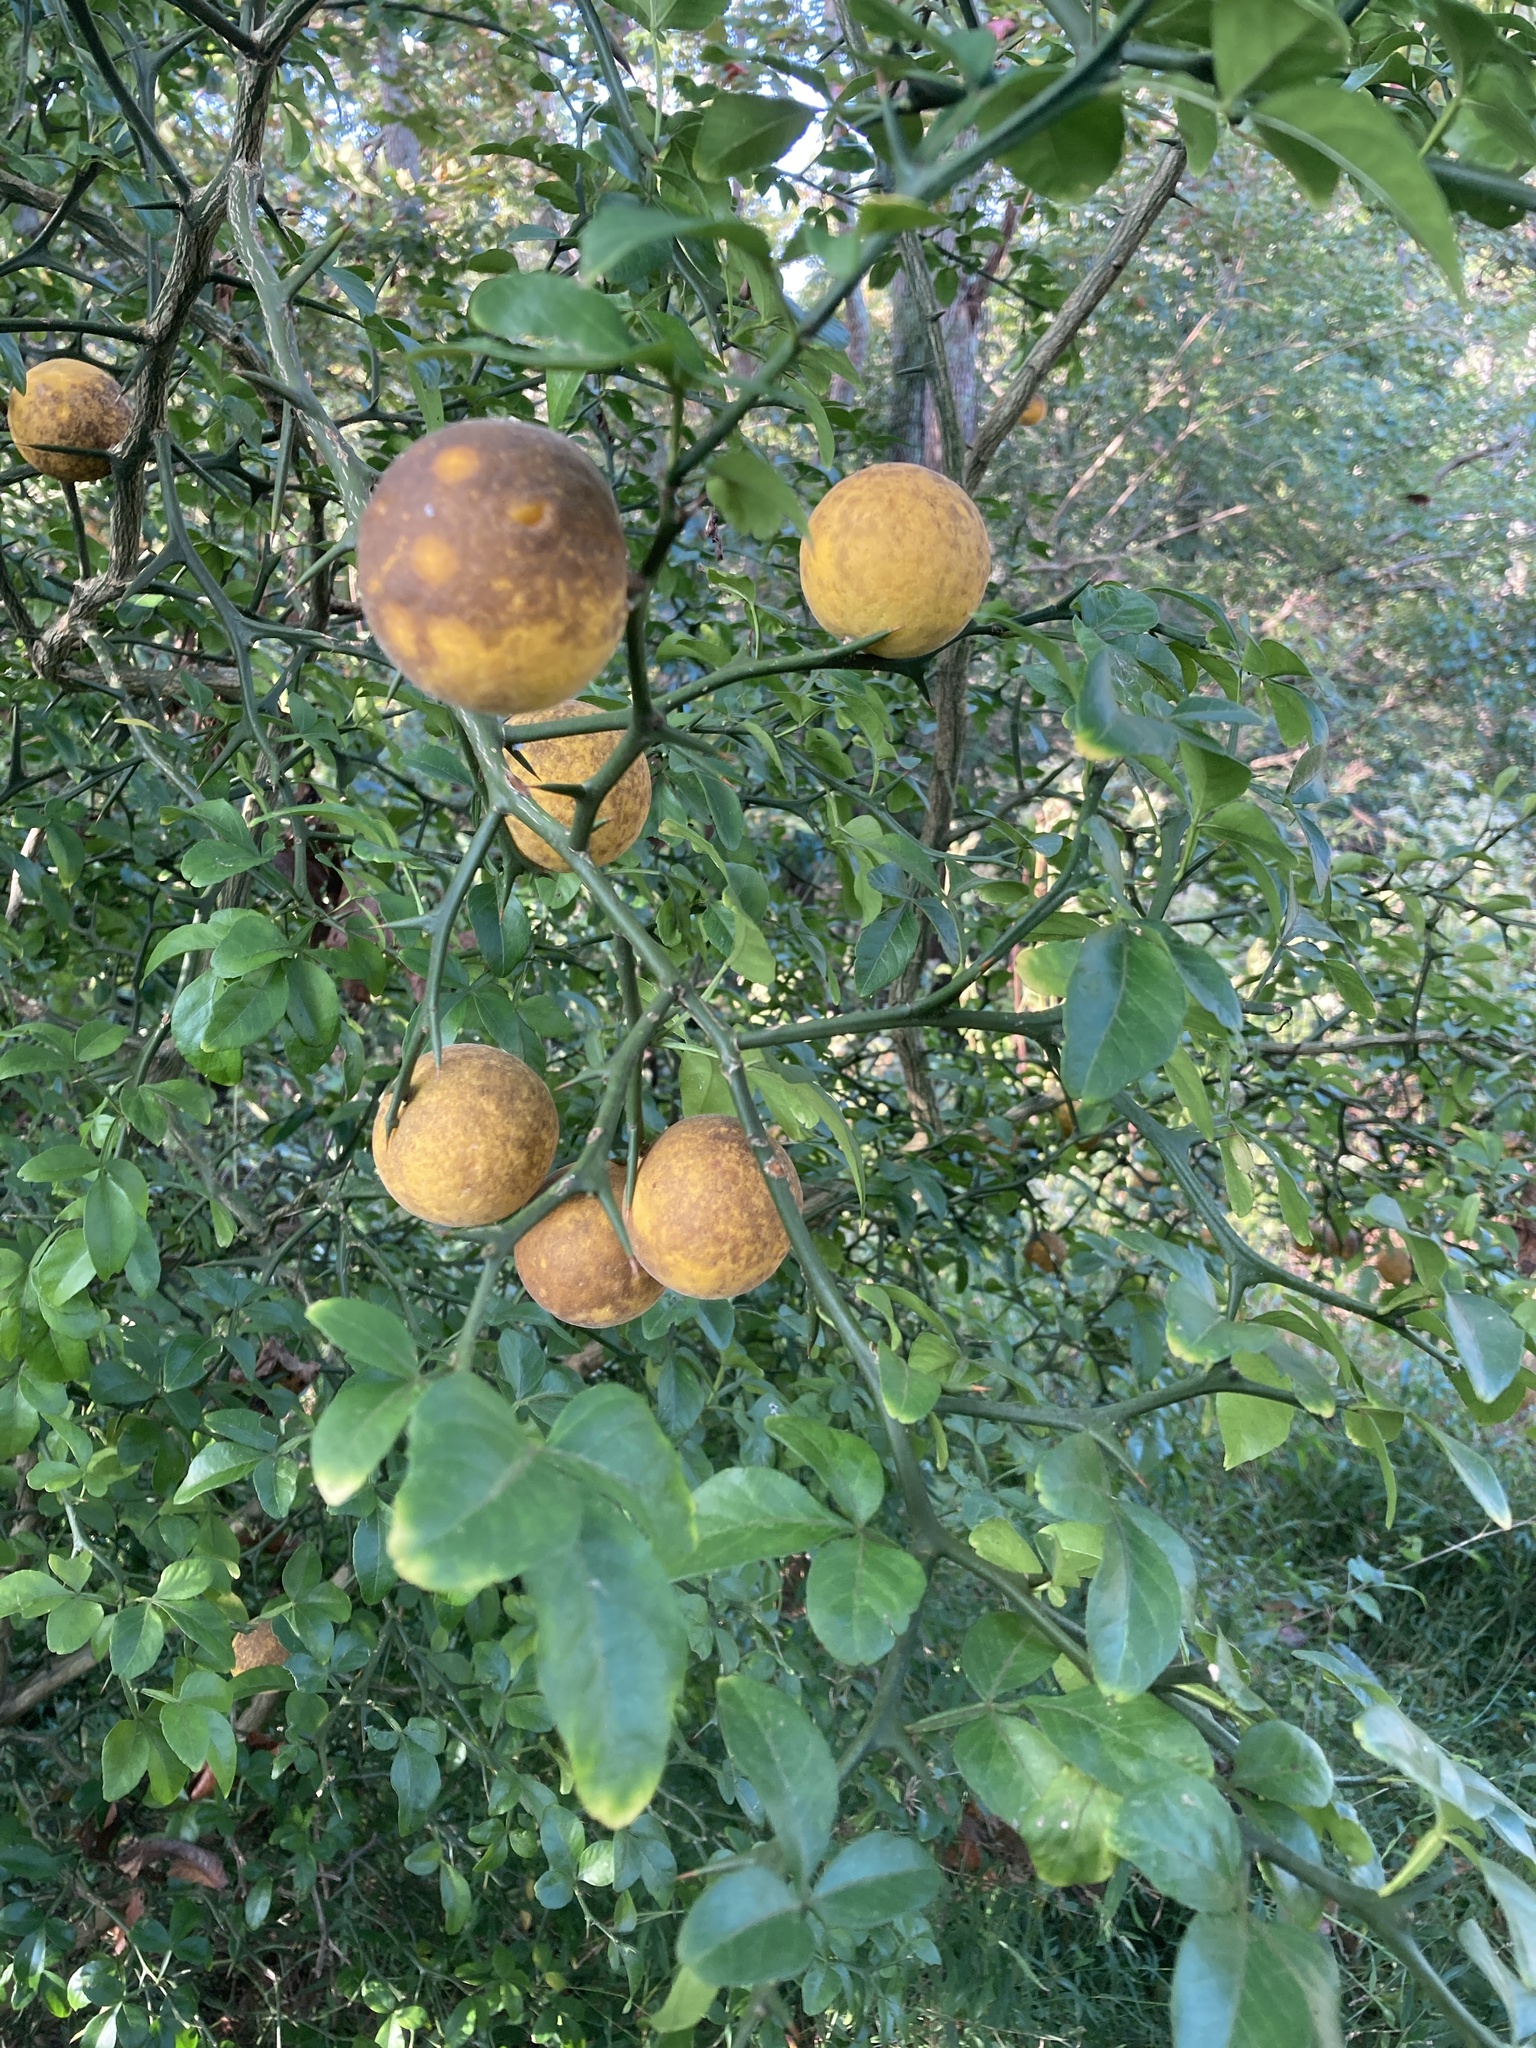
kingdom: Plantae
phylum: Tracheophyta
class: Magnoliopsida
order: Sapindales
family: Rutaceae
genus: Citrus
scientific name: Citrus trifoliata
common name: Japanese bitter-orange
